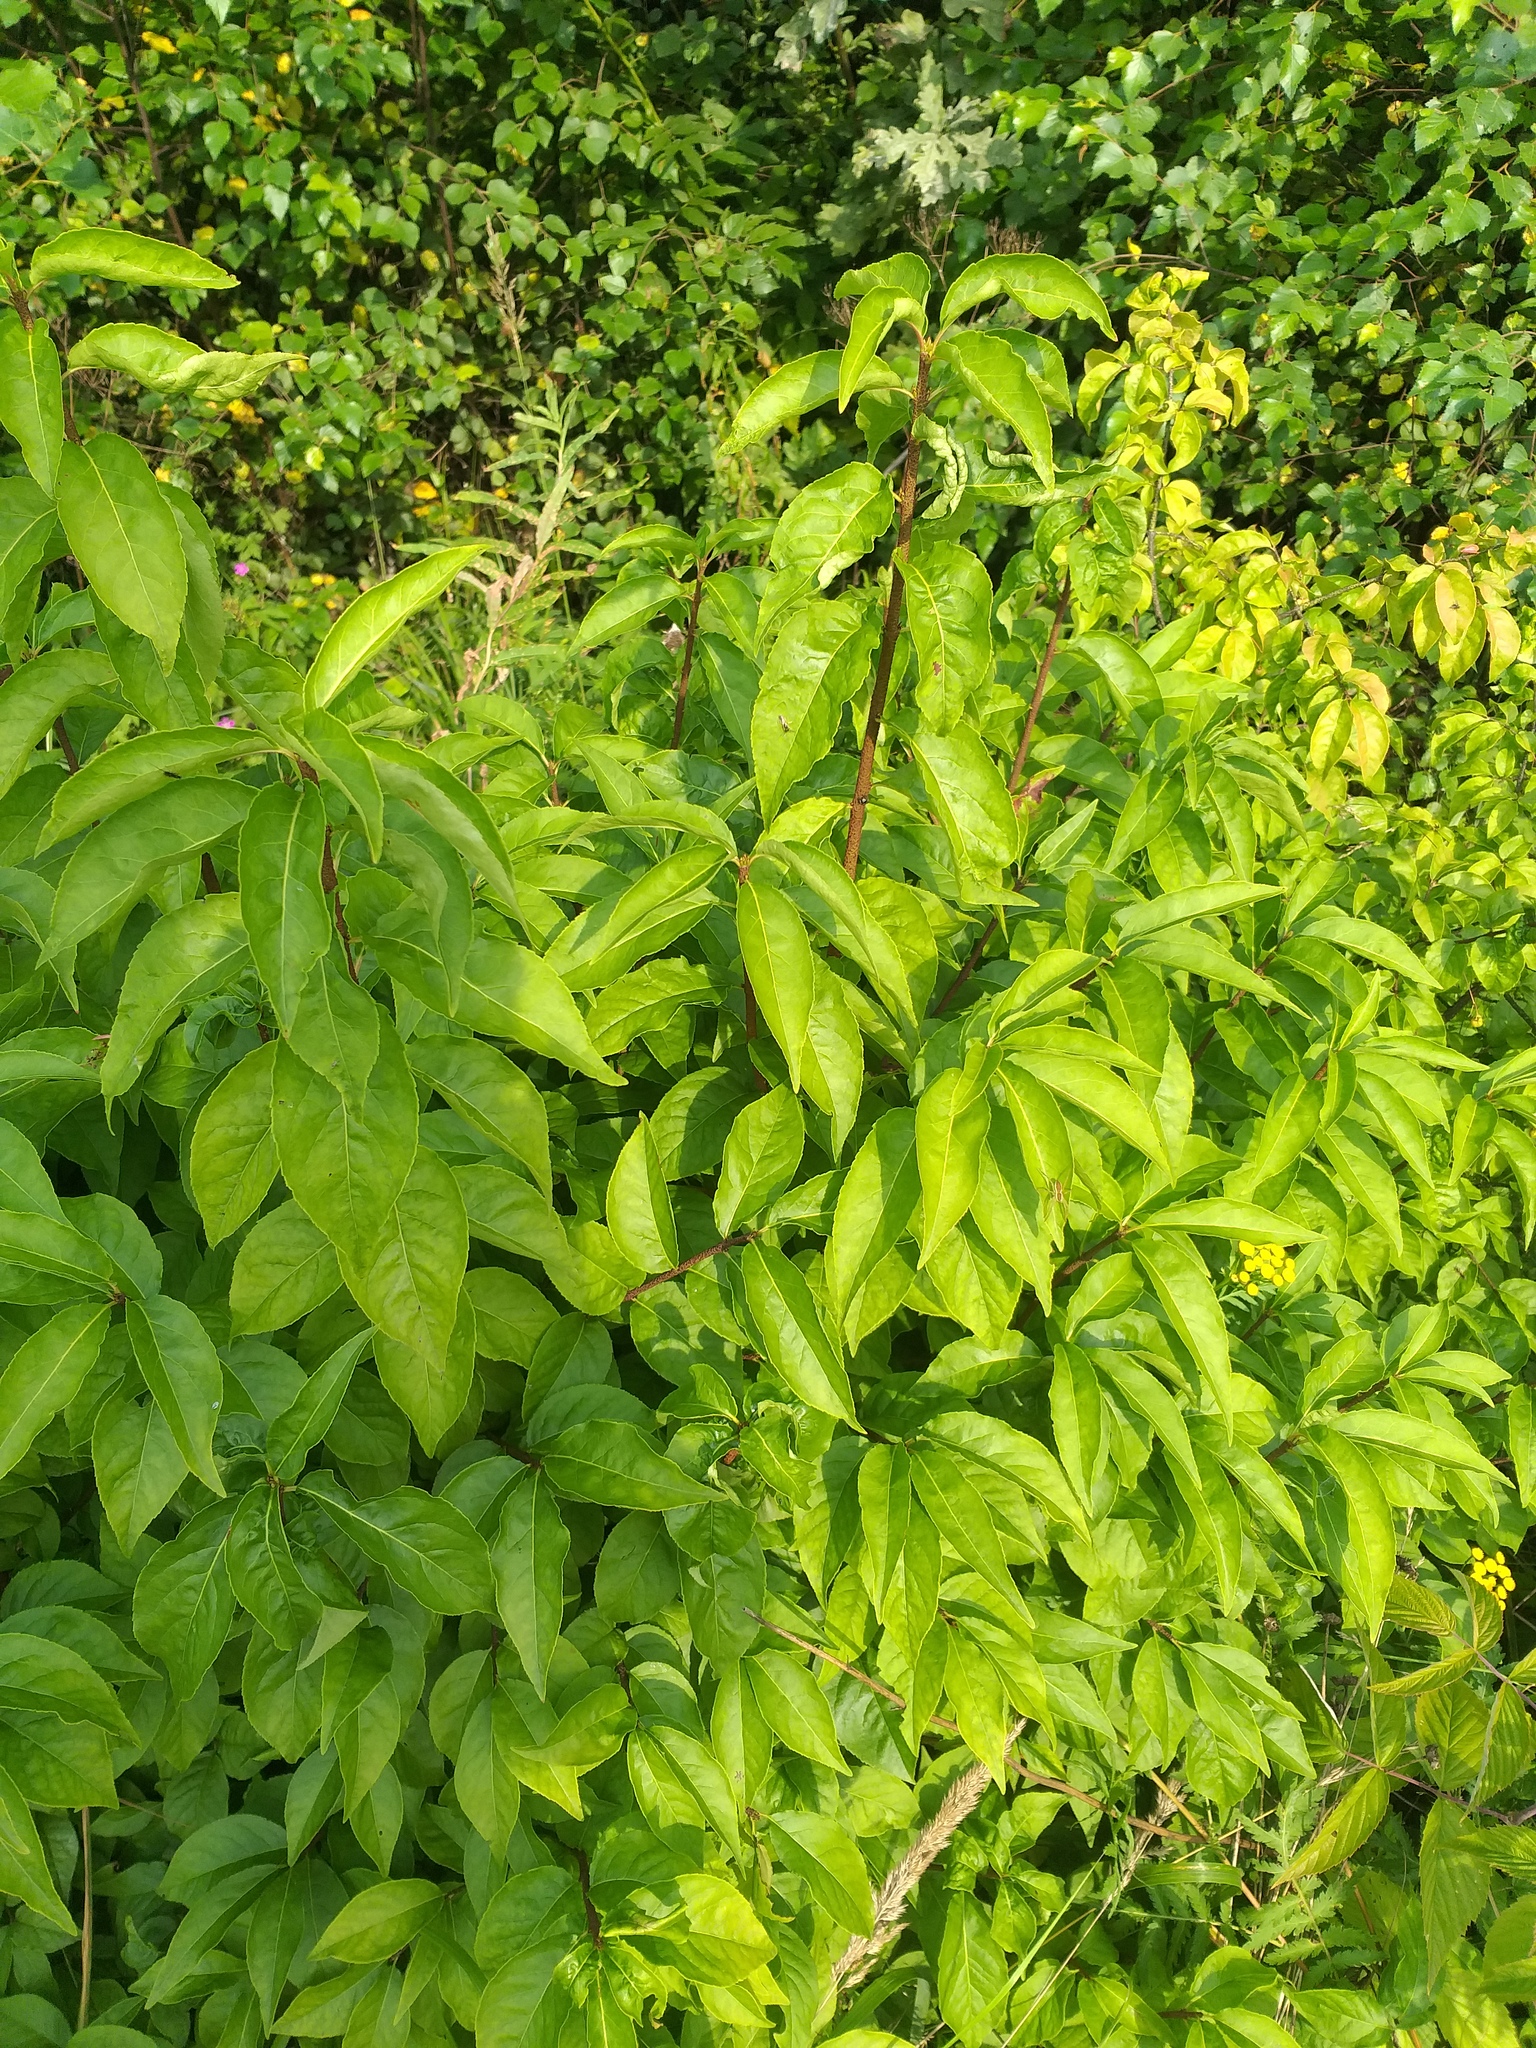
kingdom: Plantae
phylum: Tracheophyta
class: Magnoliopsida
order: Celastrales
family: Celastraceae
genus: Euonymus
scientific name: Euonymus verrucosus
